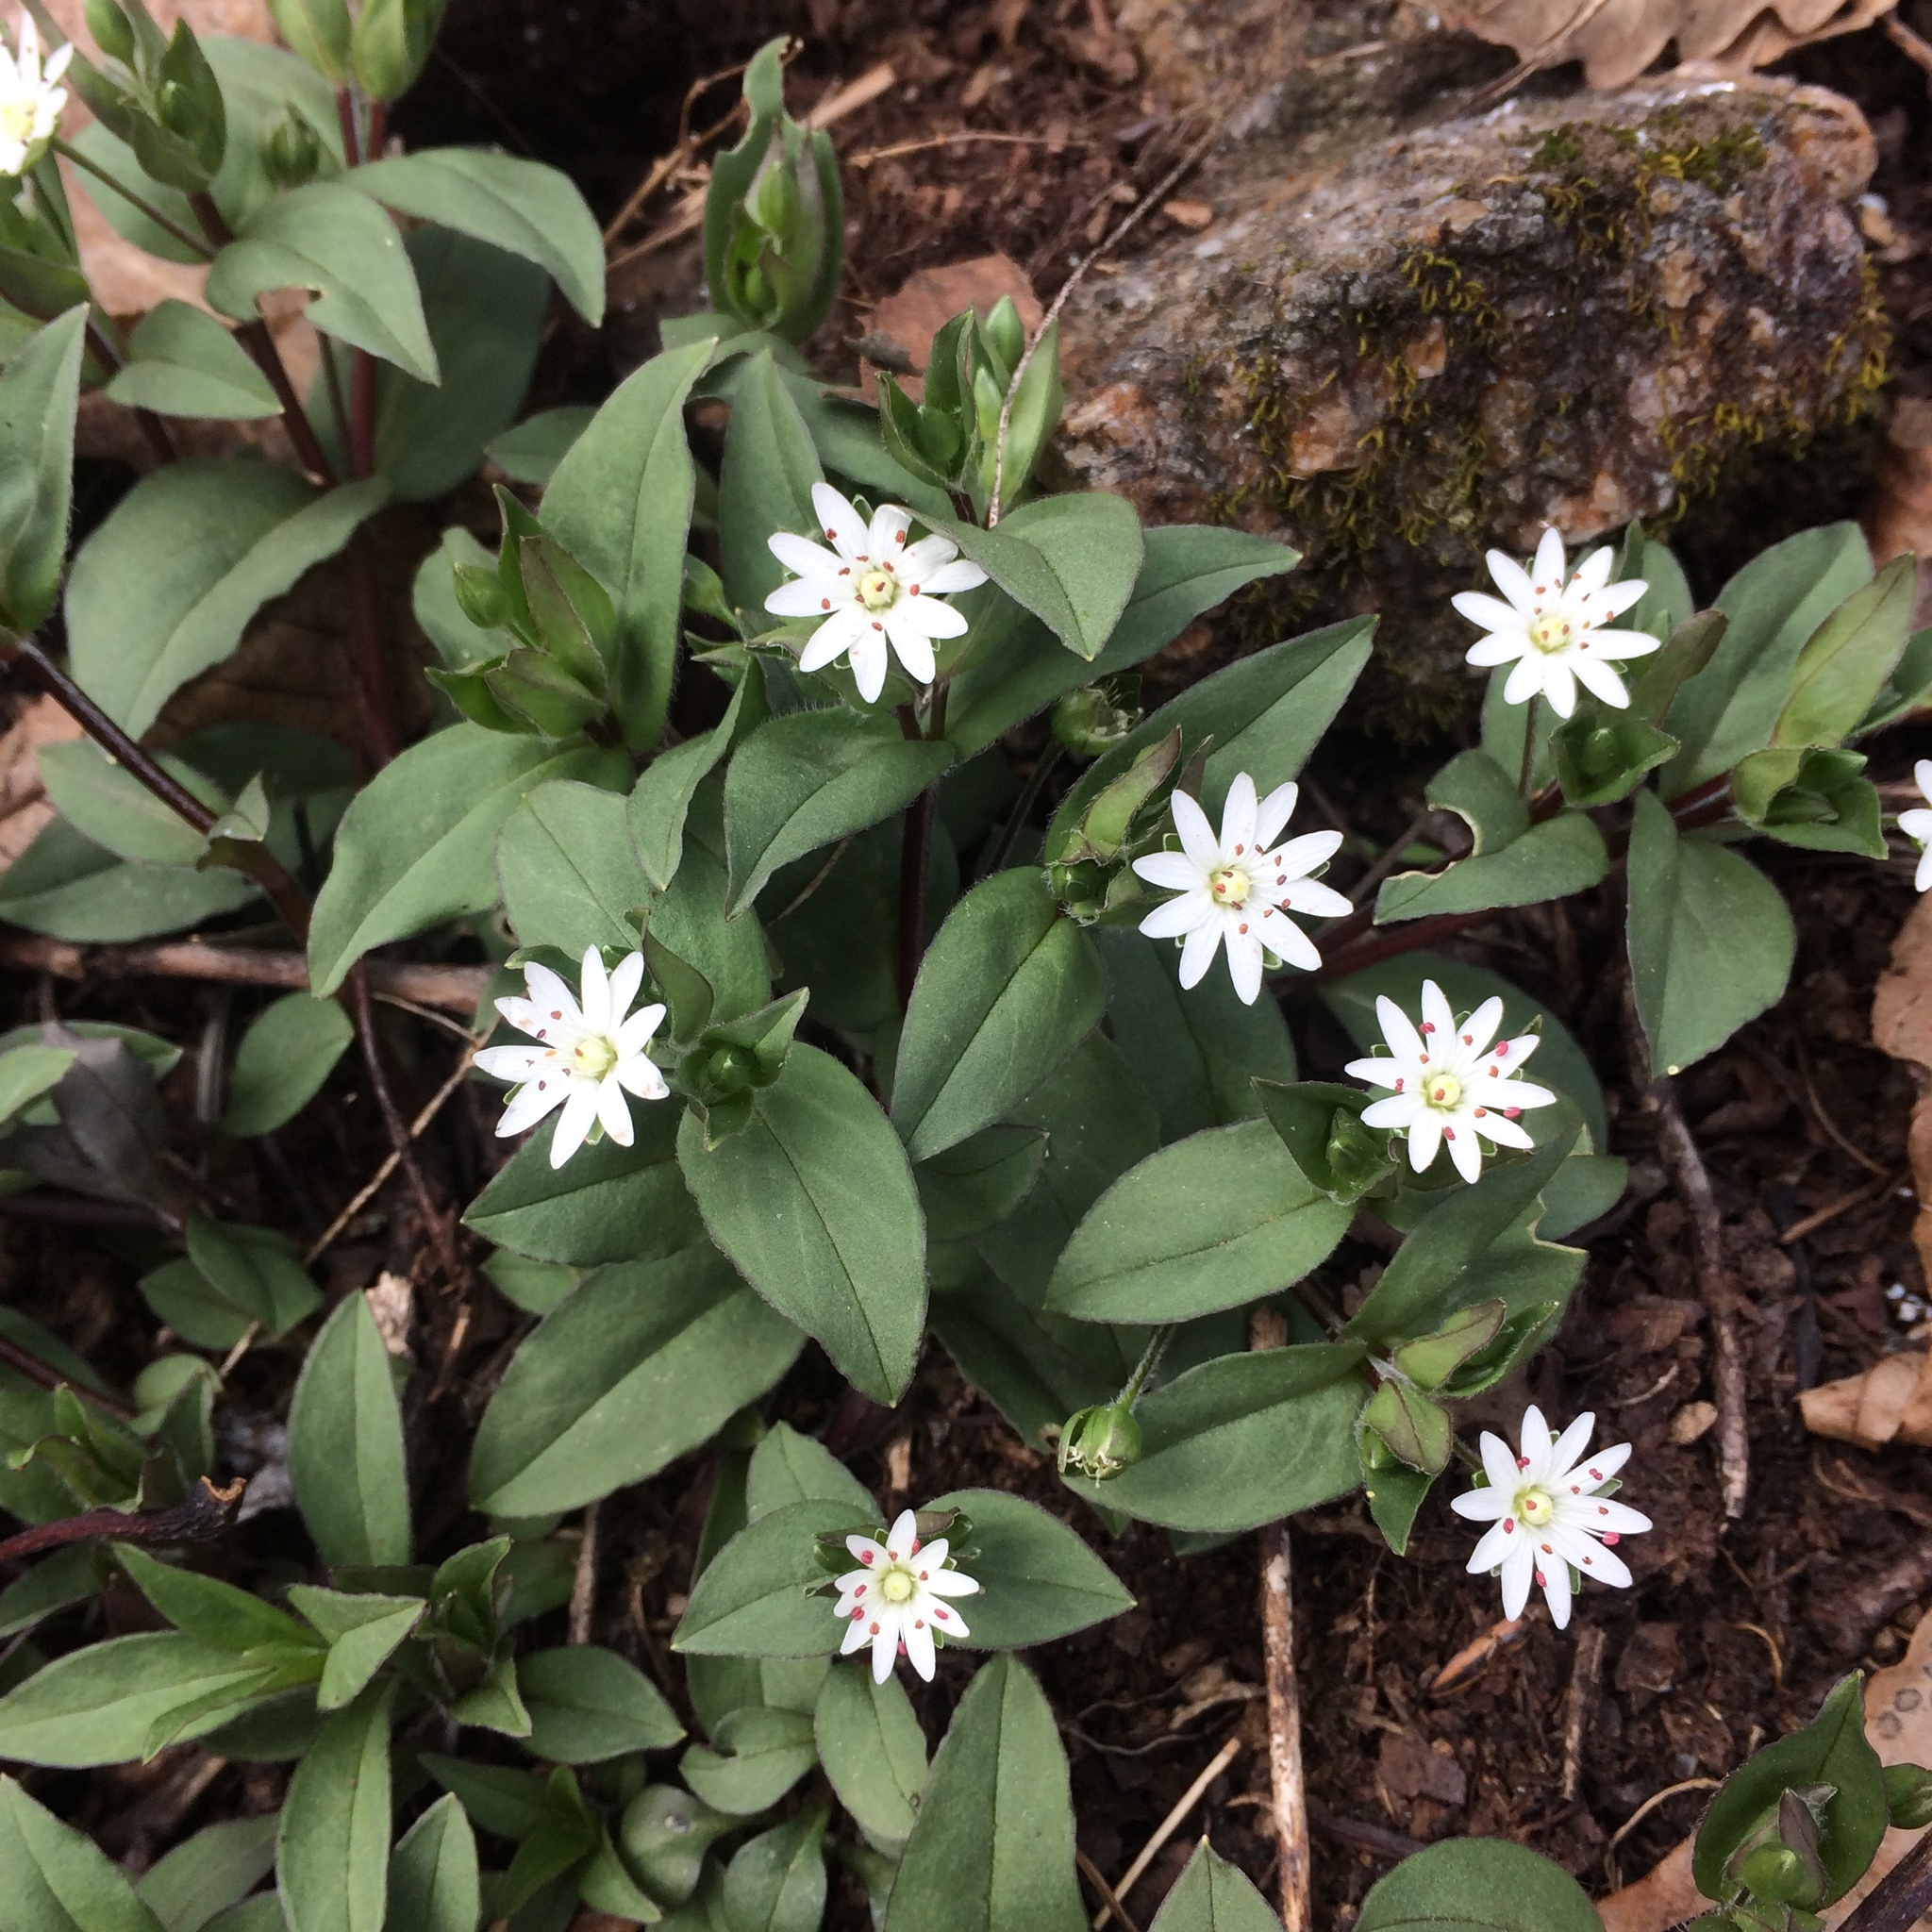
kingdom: Plantae
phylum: Tracheophyta
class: Magnoliopsida
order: Caryophyllales
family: Caryophyllaceae
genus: Stellaria
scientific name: Stellaria pubera
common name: Star chickweed
